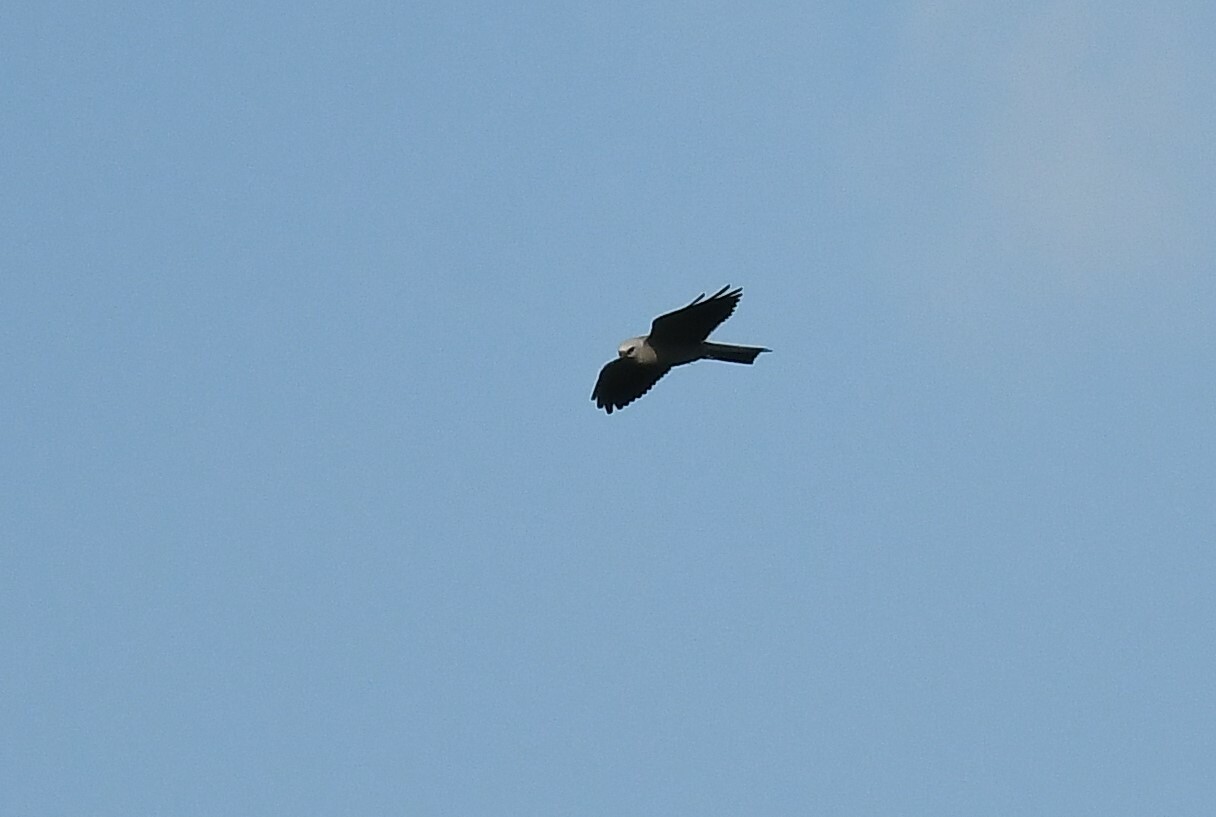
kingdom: Animalia
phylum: Chordata
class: Aves
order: Accipitriformes
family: Accipitridae
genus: Ictinia
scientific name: Ictinia mississippiensis
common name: Mississippi kite
